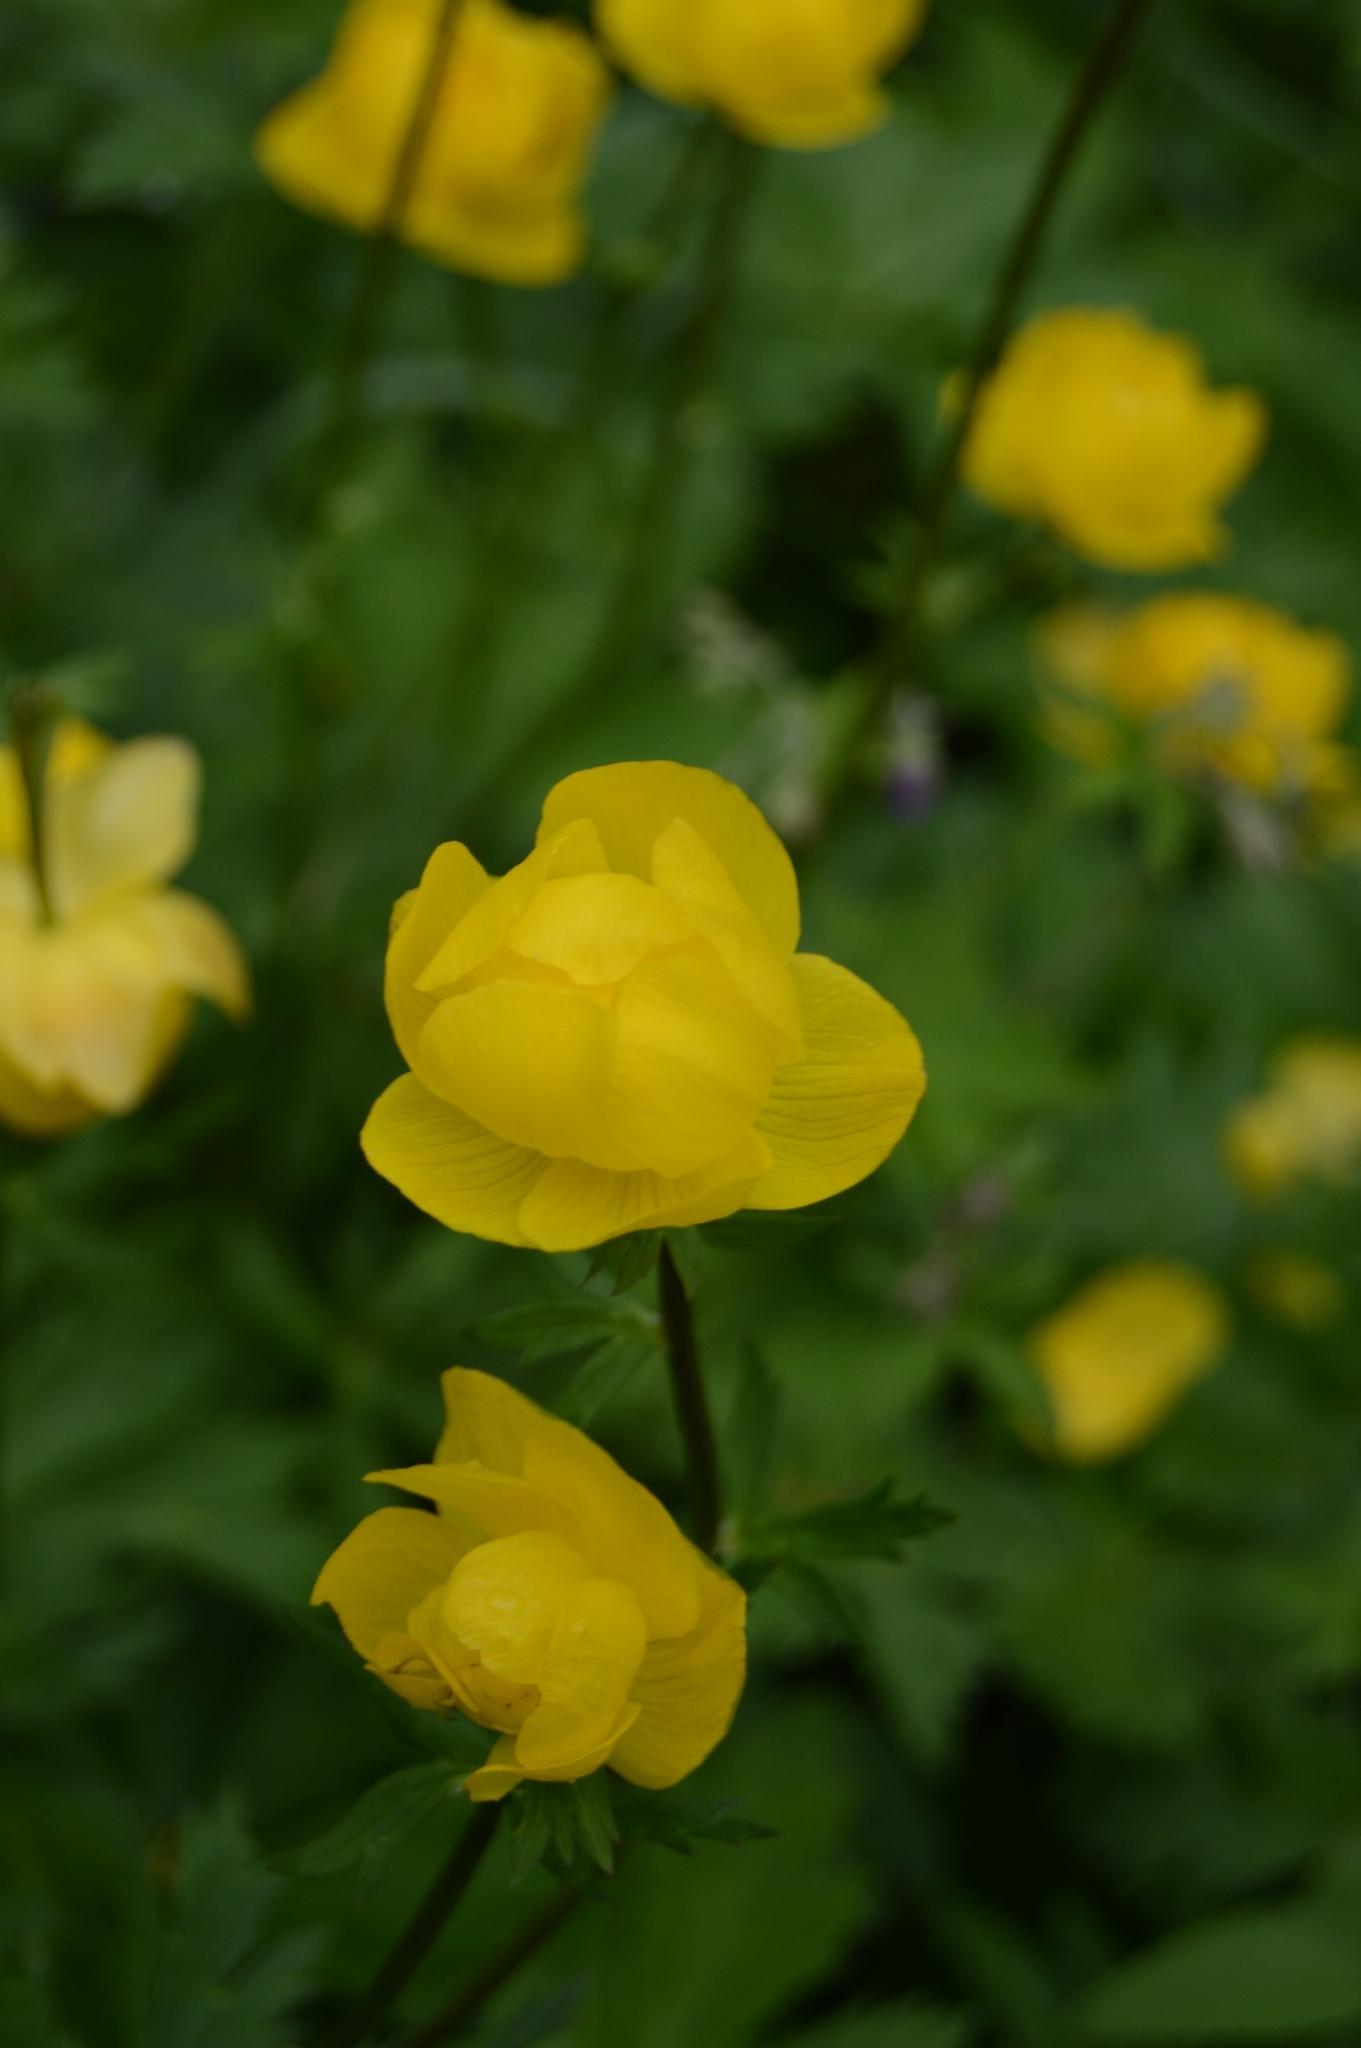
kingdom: Plantae
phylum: Tracheophyta
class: Magnoliopsida
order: Ranunculales
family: Ranunculaceae
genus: Trollius
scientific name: Trollius europaeus
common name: European globeflower
